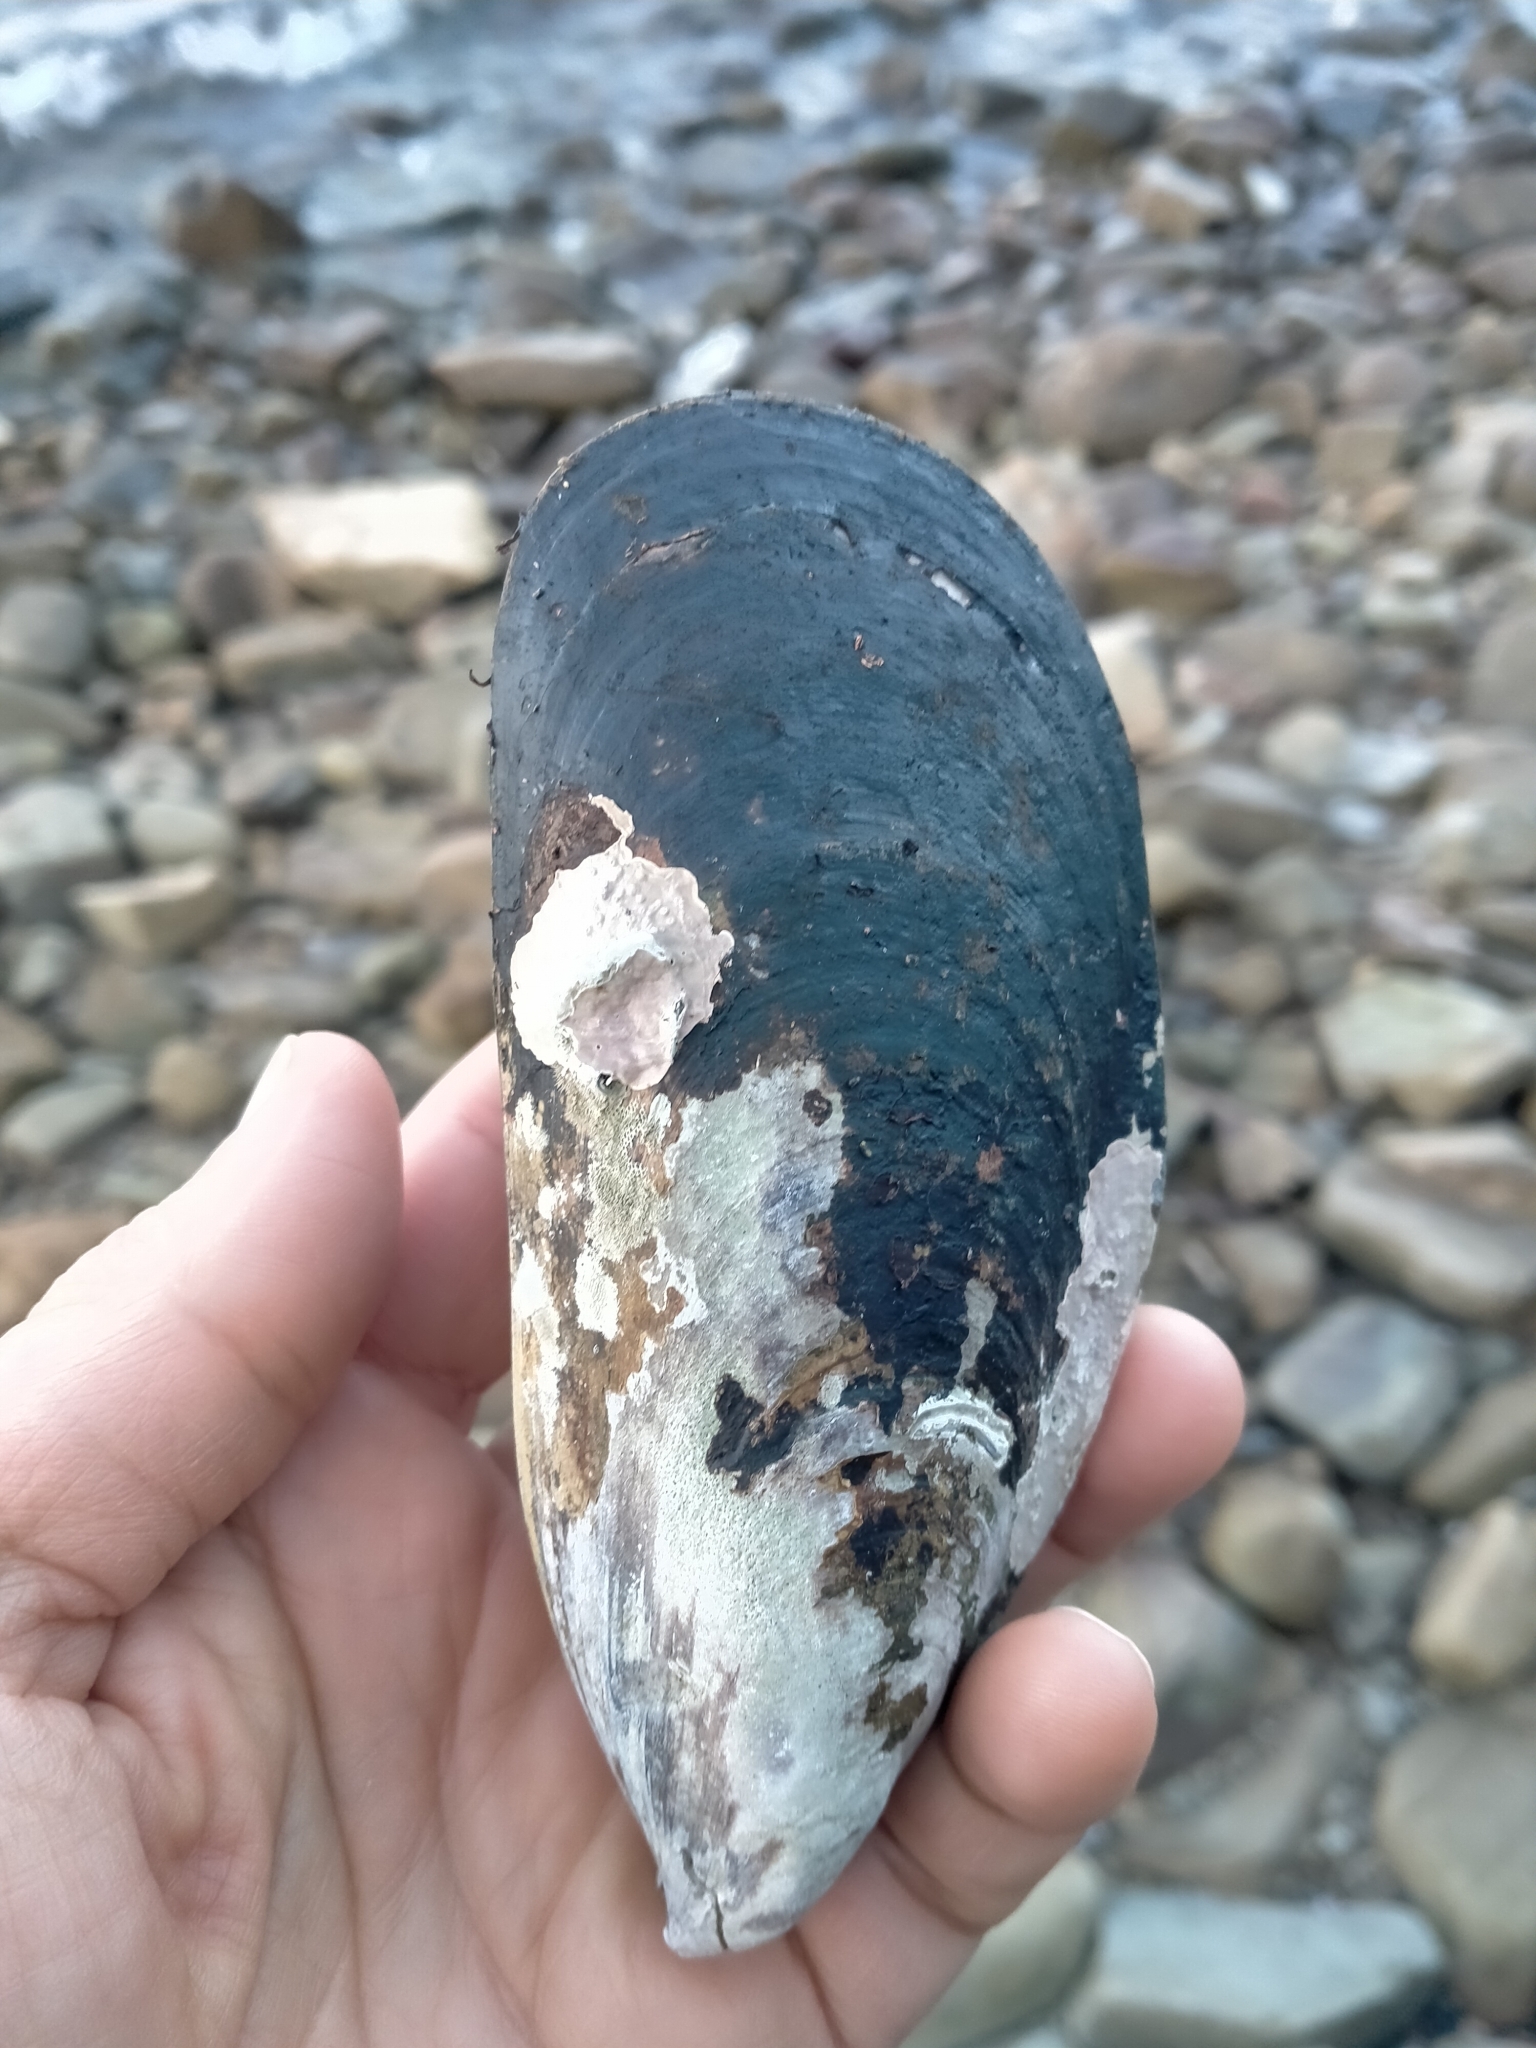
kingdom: Animalia
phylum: Mollusca
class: Bivalvia
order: Mytilida
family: Mytilidae
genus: Perna
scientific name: Perna canaliculus
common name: New zealand greenshelltm
